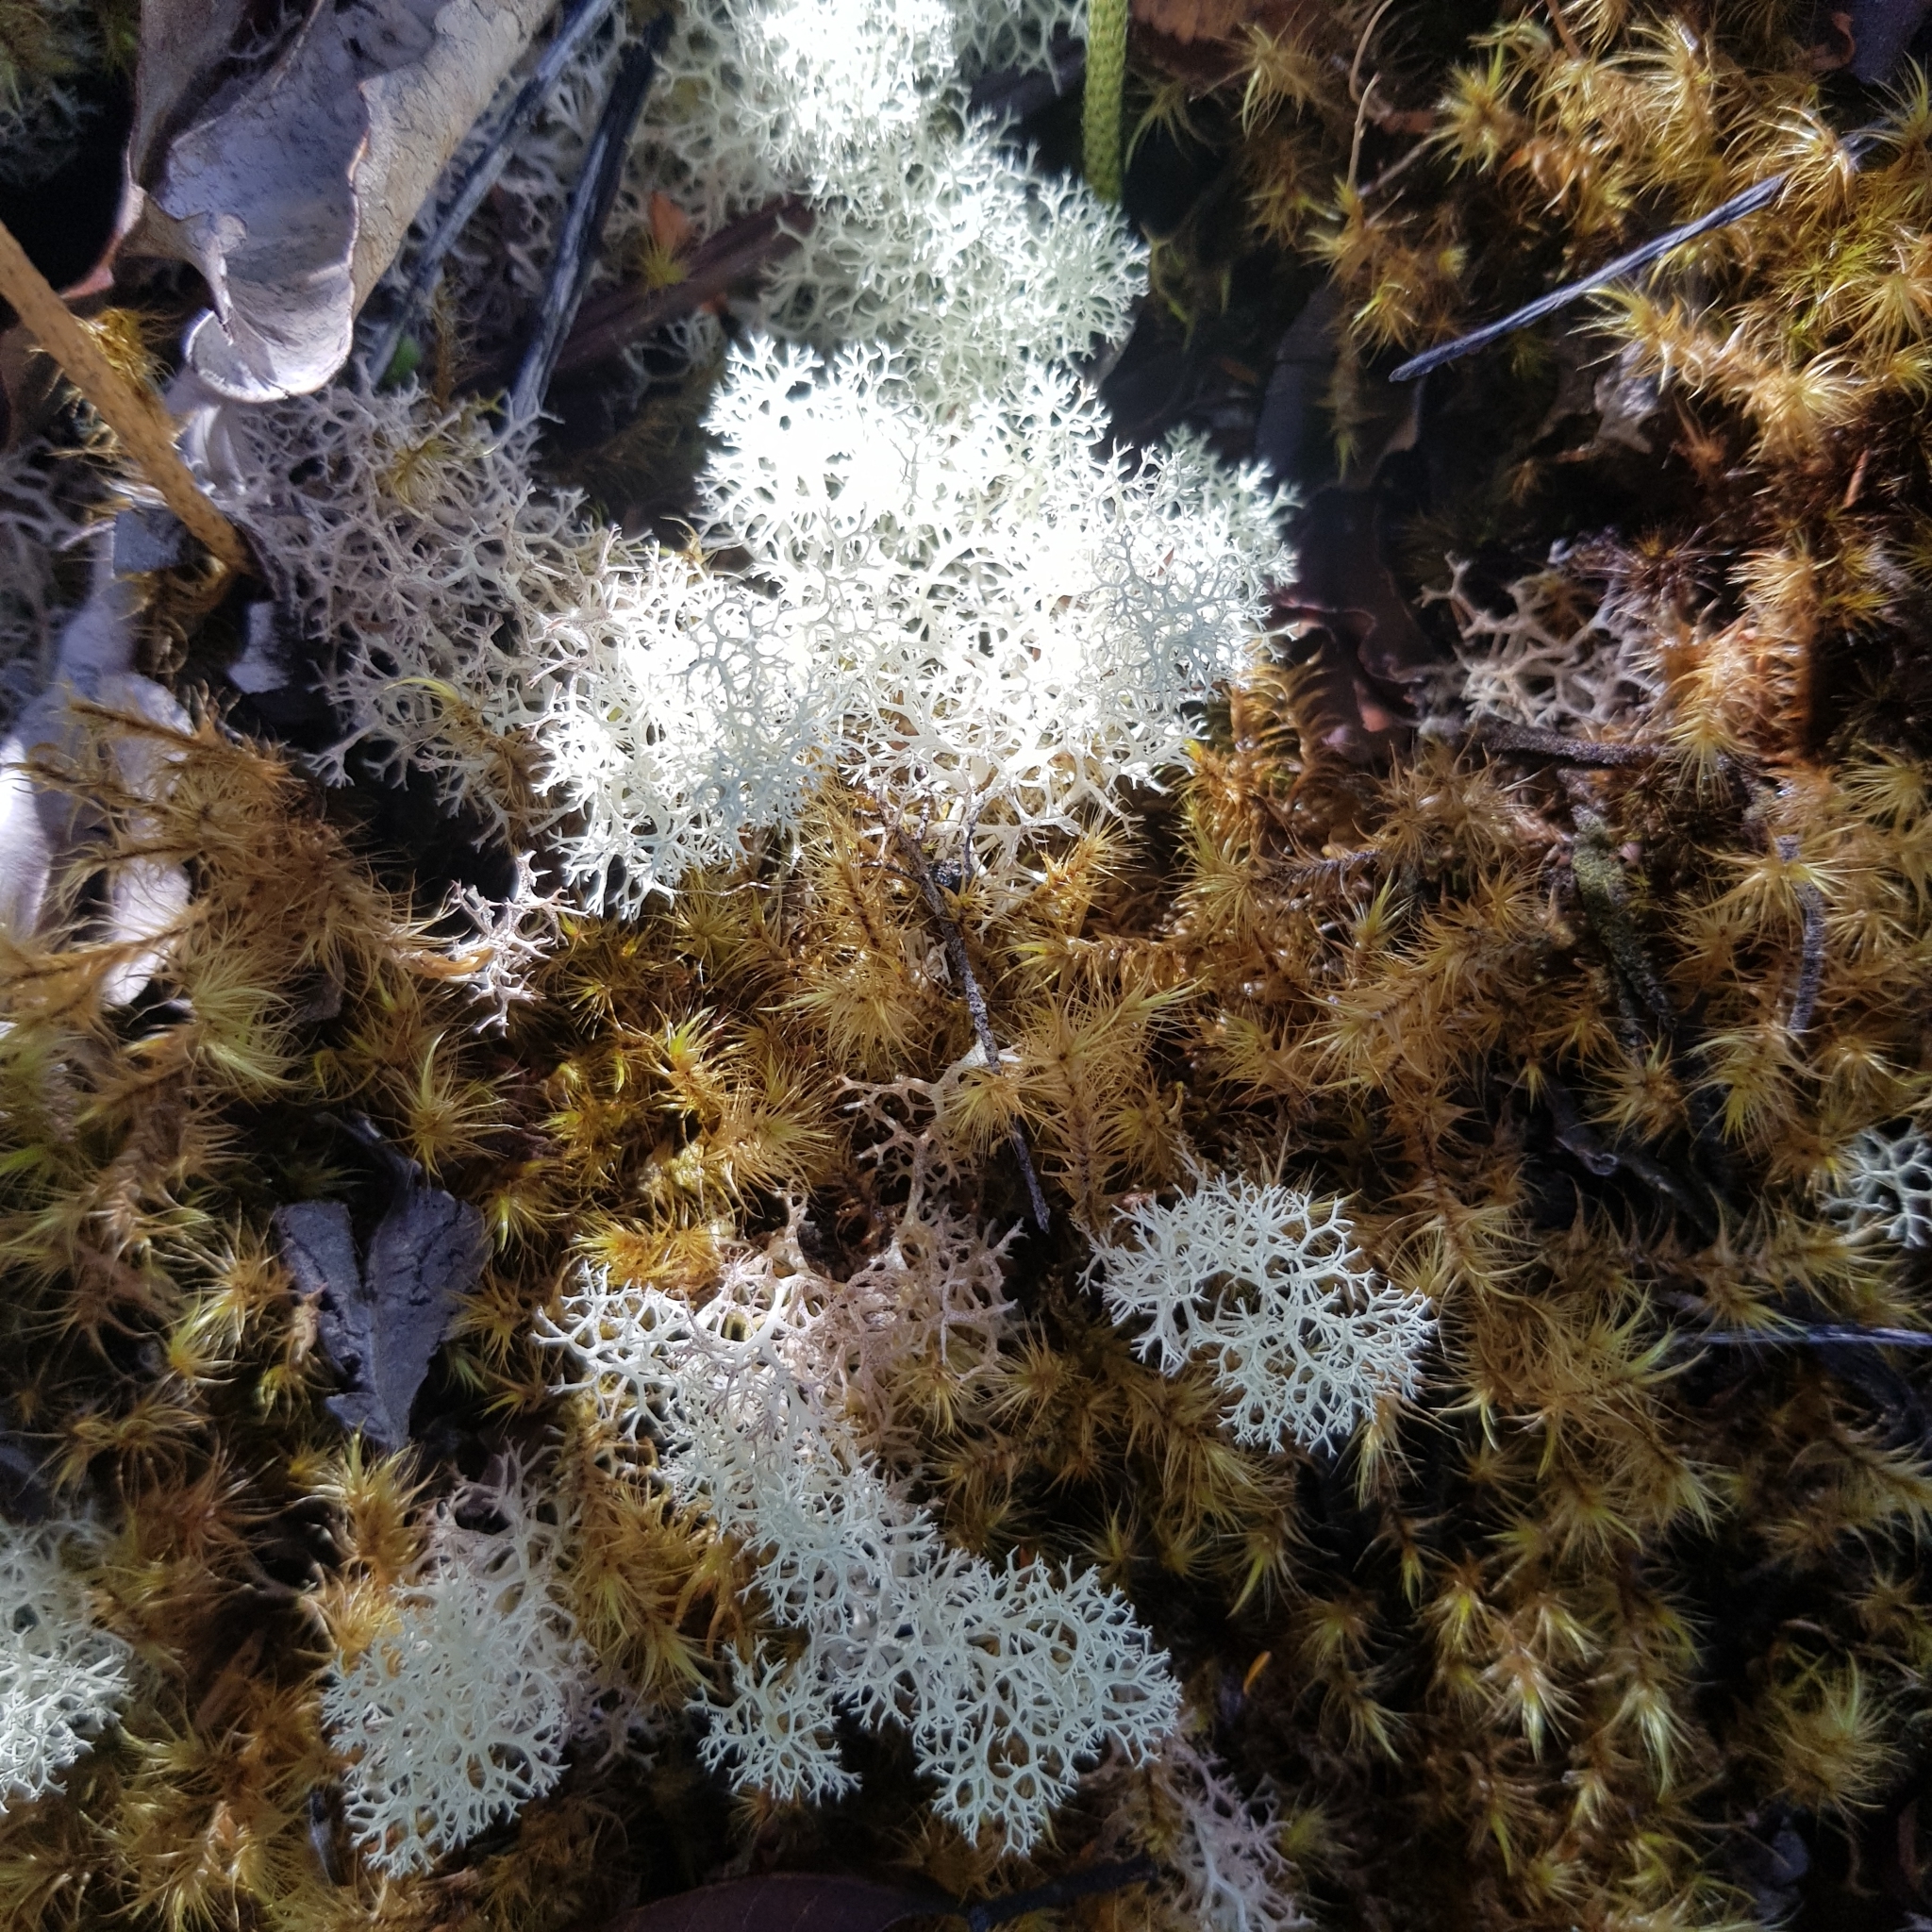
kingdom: Fungi
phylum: Ascomycota
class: Lecanoromycetes
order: Lecanorales
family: Cladoniaceae
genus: Cladonia
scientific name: Cladonia confusa
